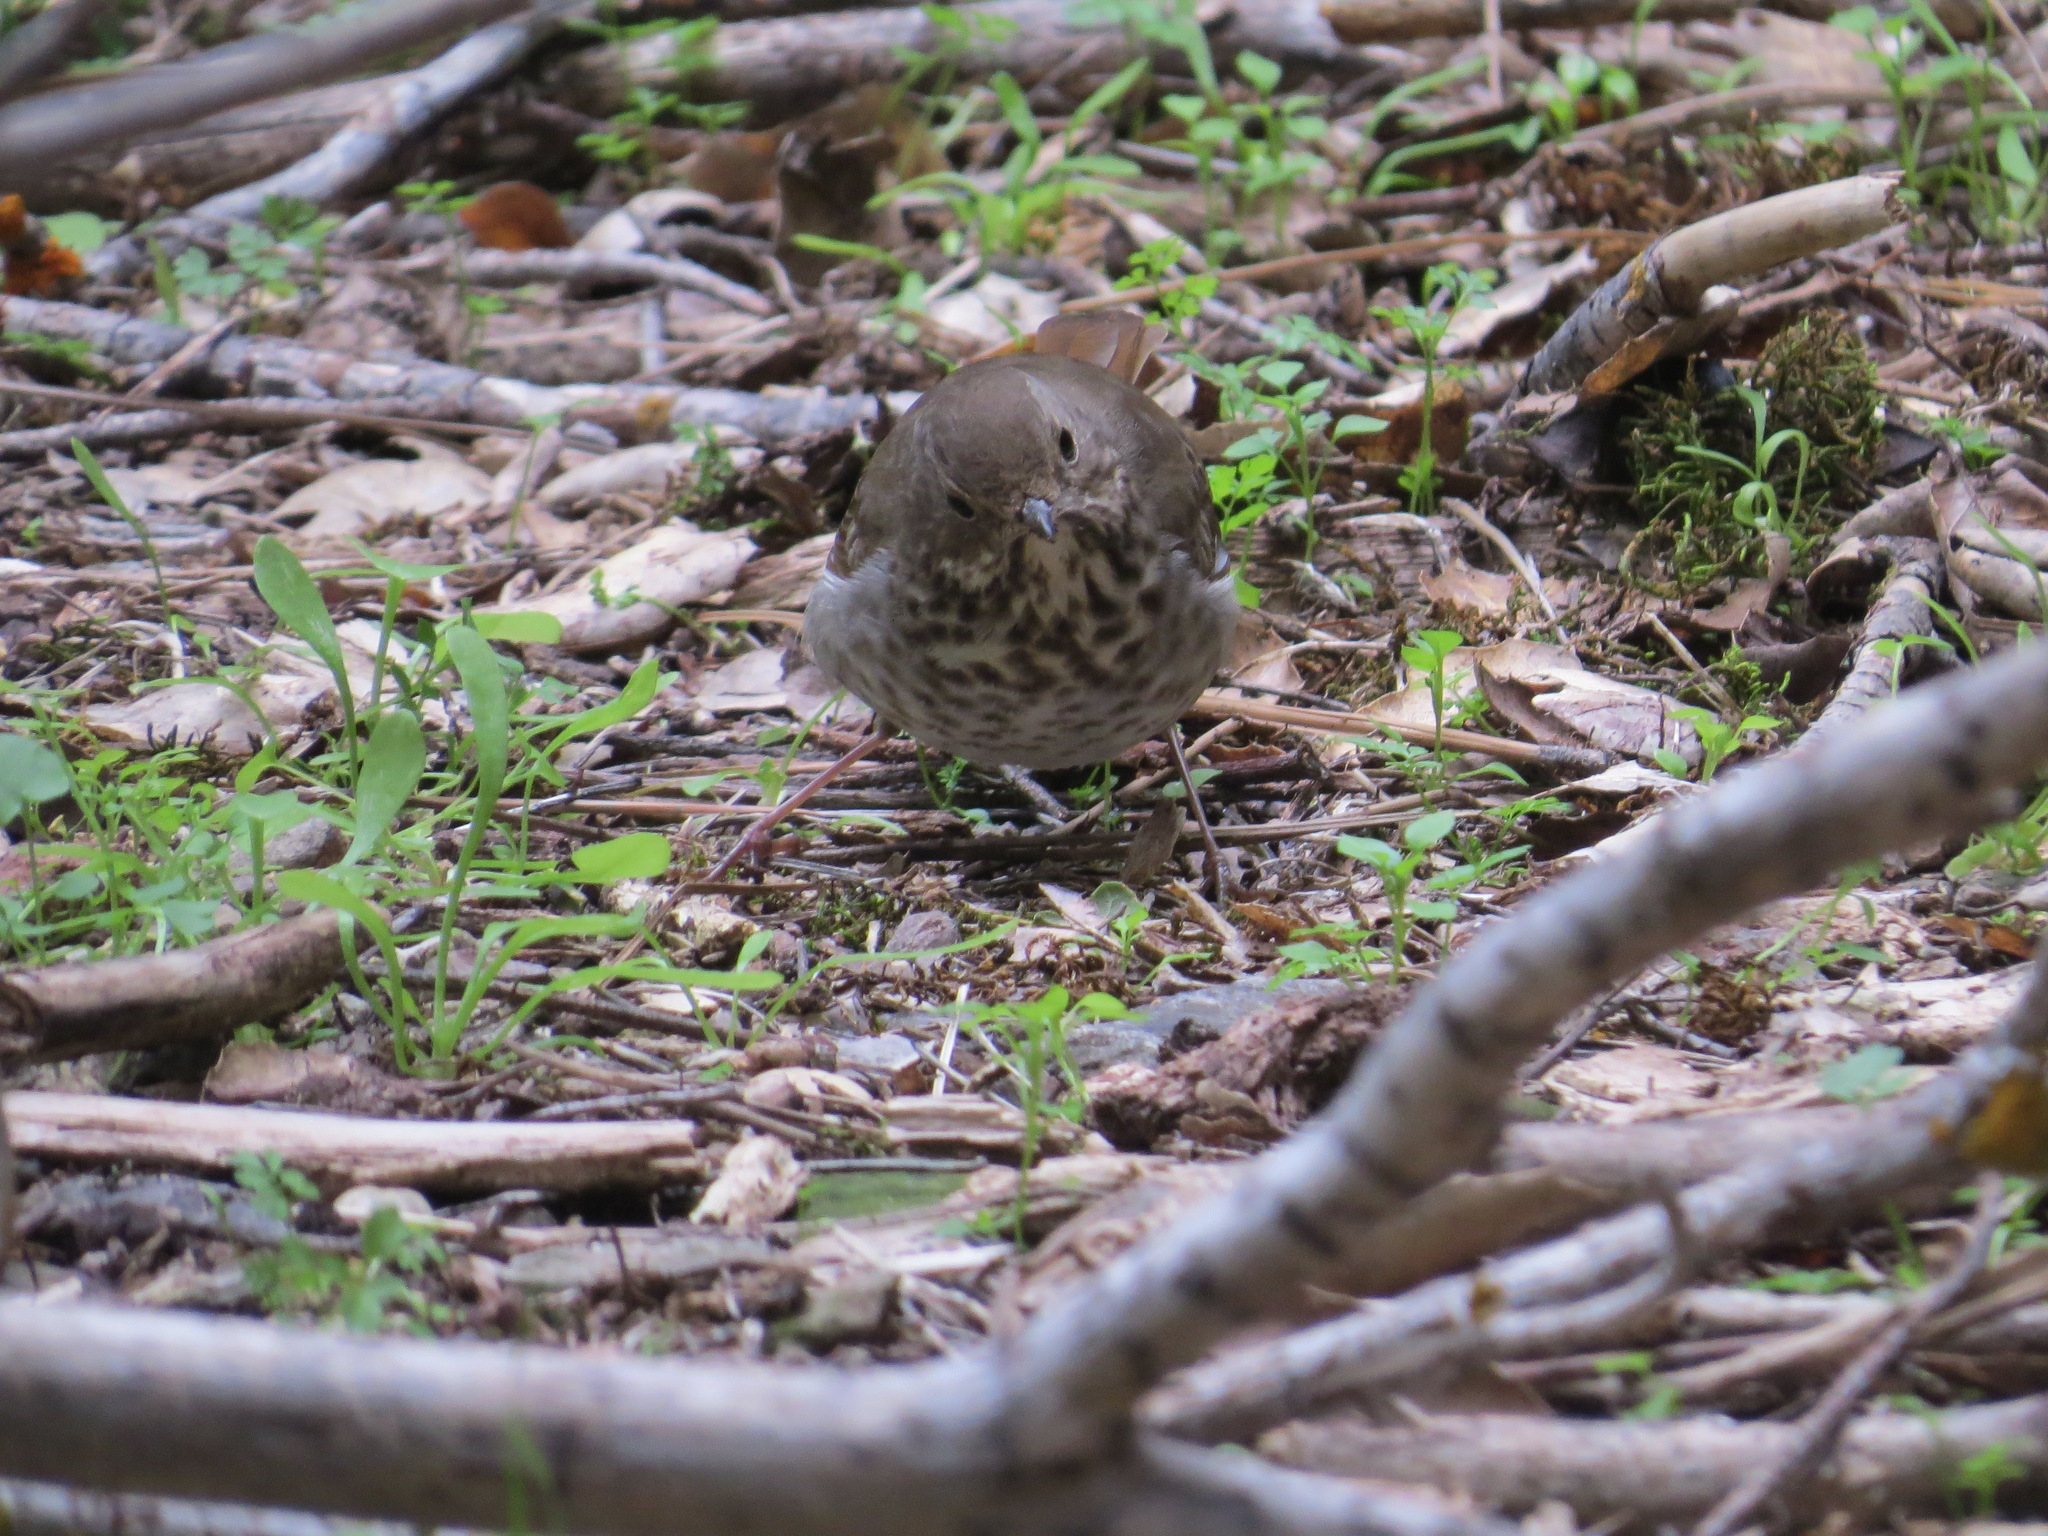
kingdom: Animalia
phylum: Chordata
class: Aves
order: Passeriformes
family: Turdidae
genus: Catharus
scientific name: Catharus guttatus
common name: Hermit thrush
